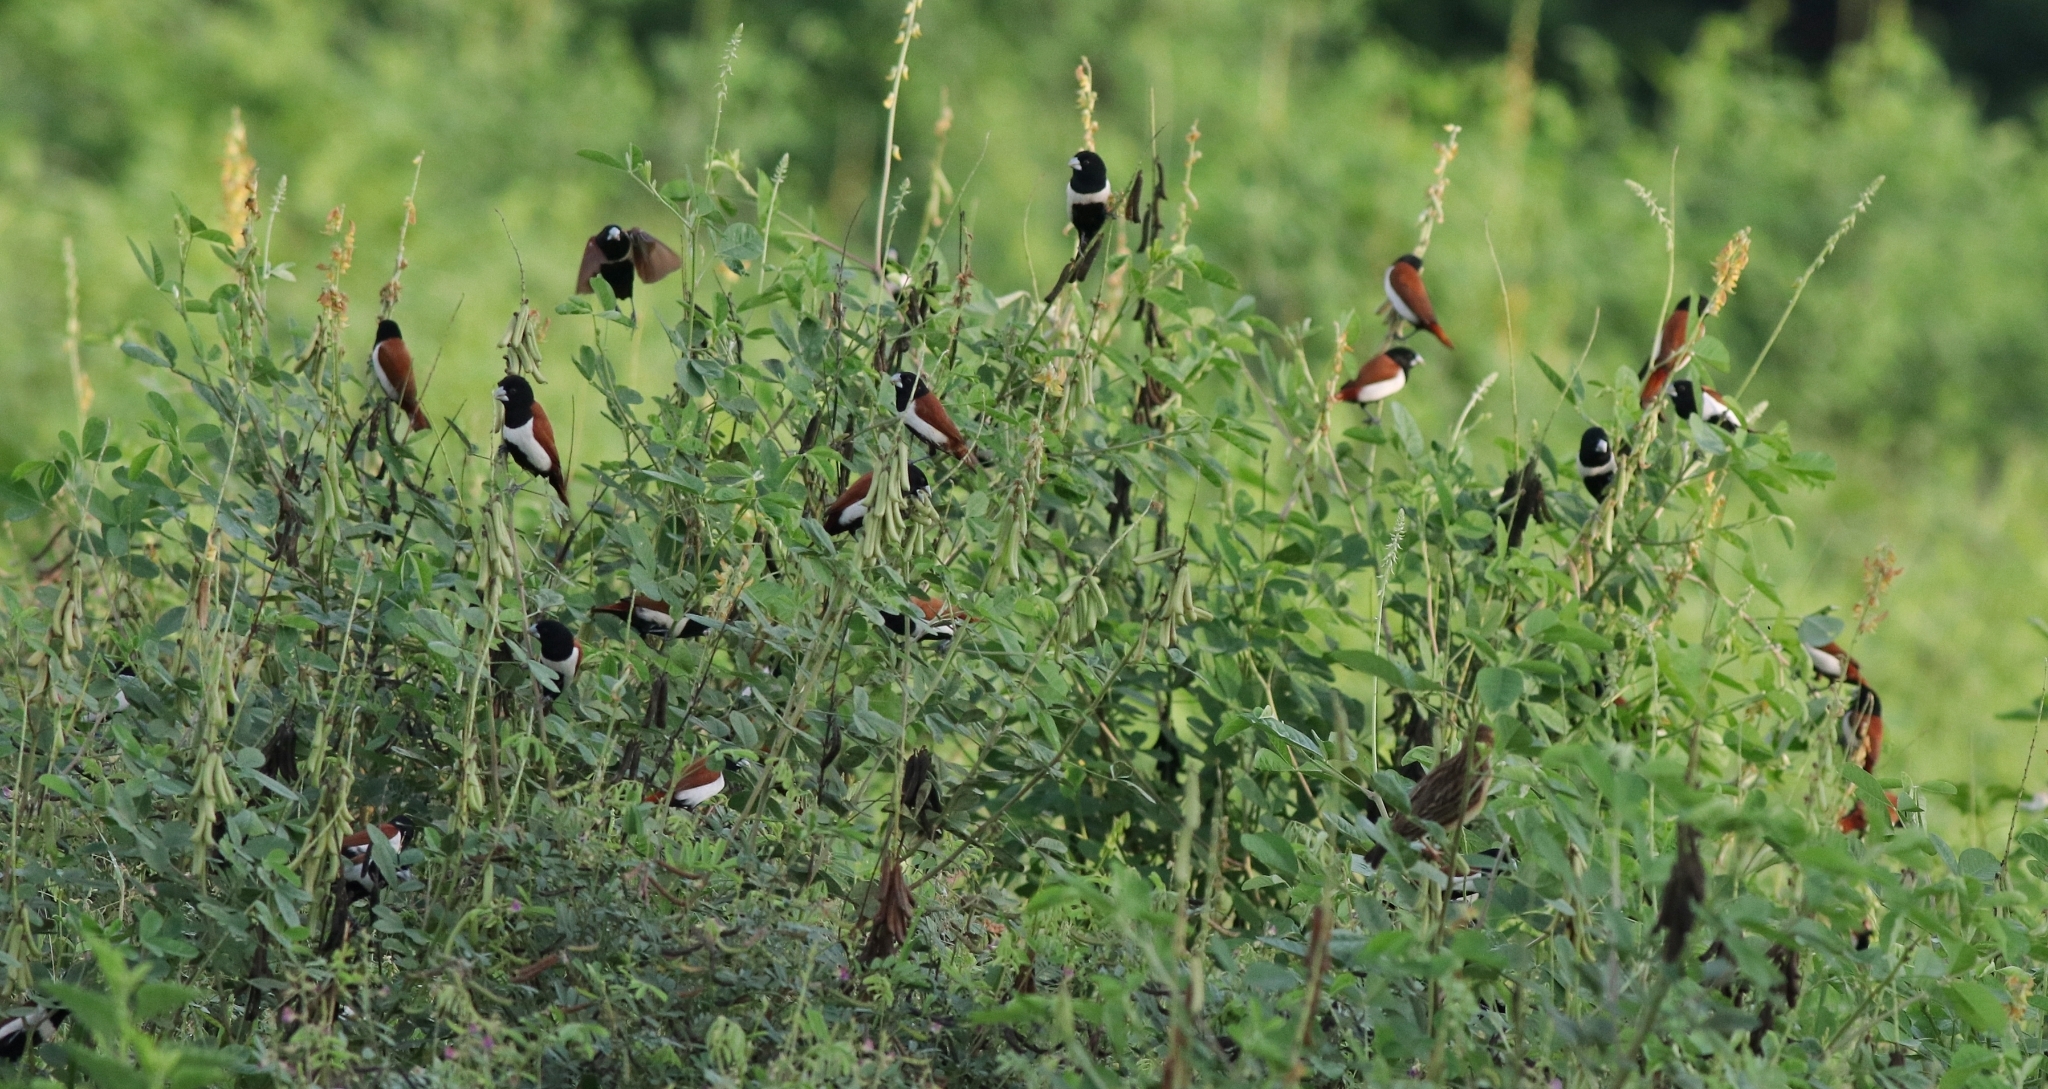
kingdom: Animalia
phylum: Chordata
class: Aves
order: Passeriformes
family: Estrildidae
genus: Lonchura
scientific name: Lonchura malacca
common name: Tricolored munia
